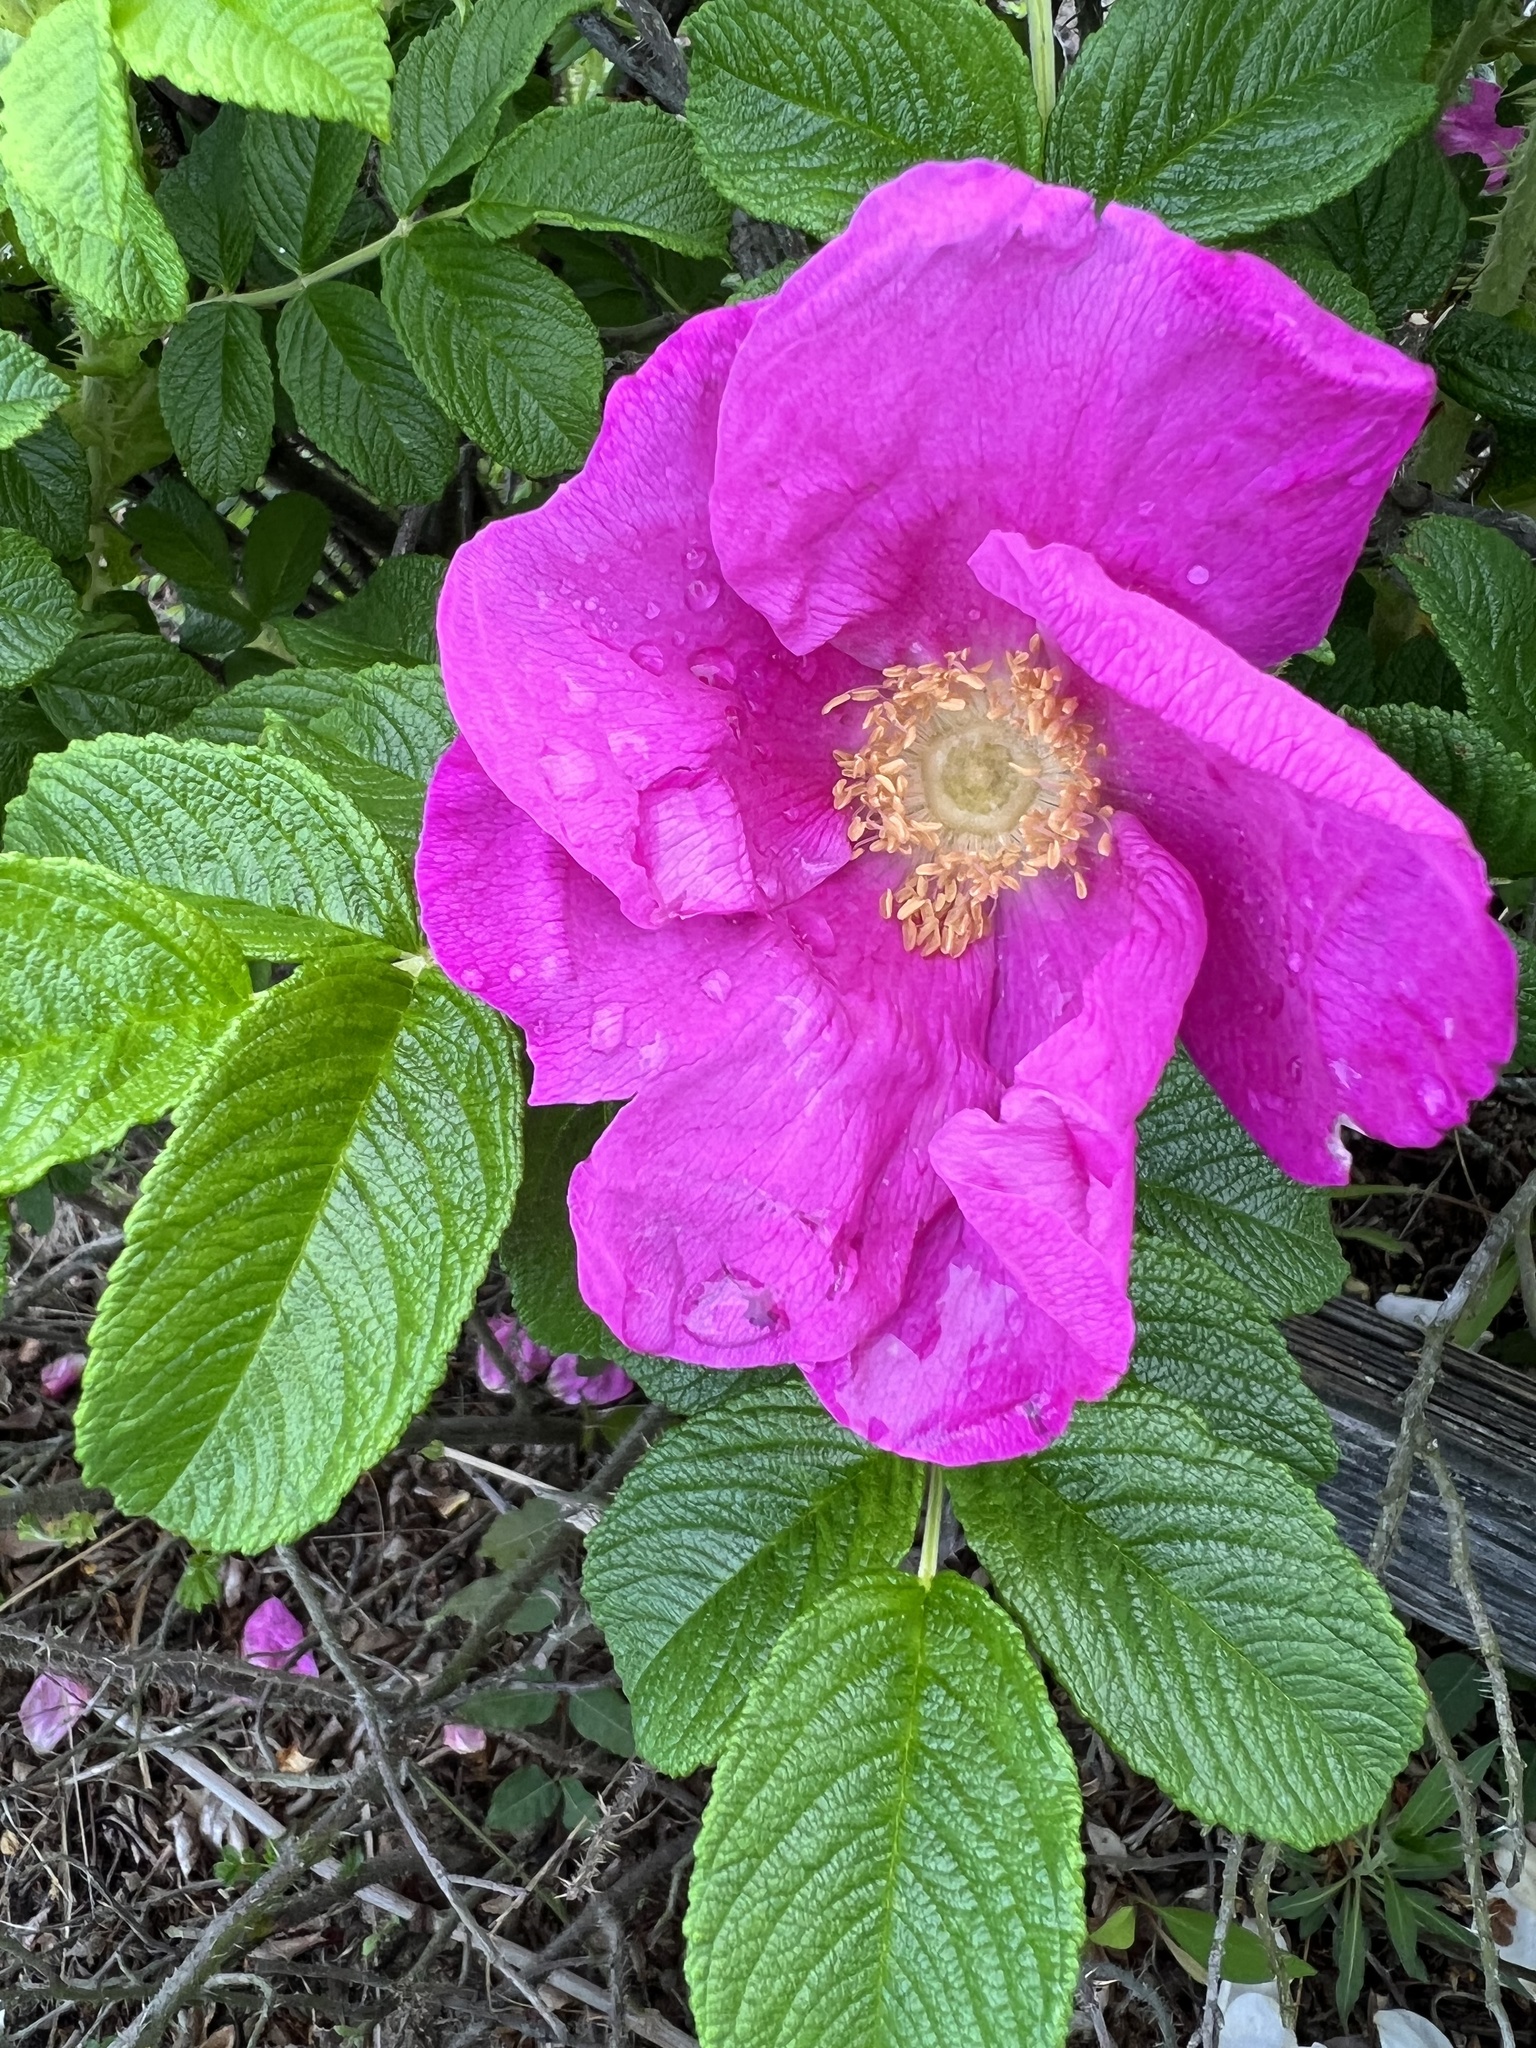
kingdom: Plantae
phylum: Tracheophyta
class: Magnoliopsida
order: Rosales
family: Rosaceae
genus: Rosa
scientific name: Rosa rugosa
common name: Japanese rose
